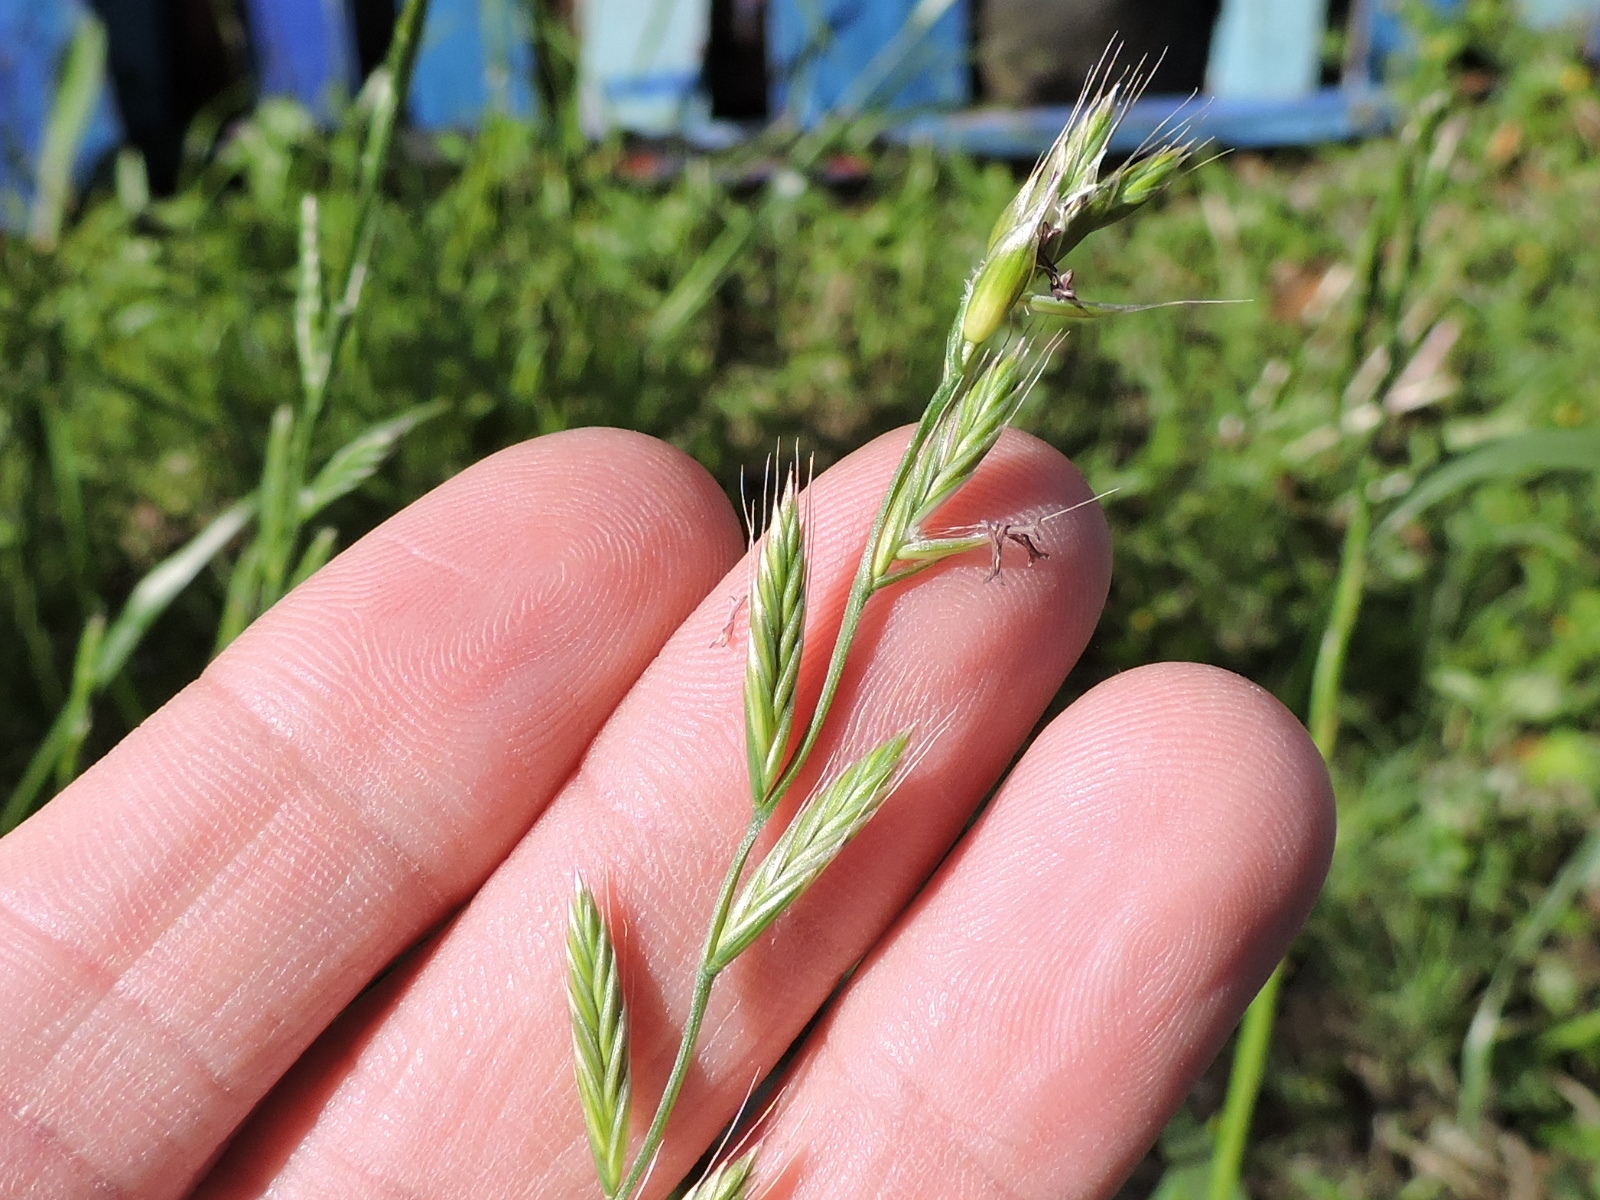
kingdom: Plantae
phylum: Tracheophyta
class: Liliopsida
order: Poales
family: Poaceae
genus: Lolium
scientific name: Lolium perenne
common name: Perennial ryegrass
